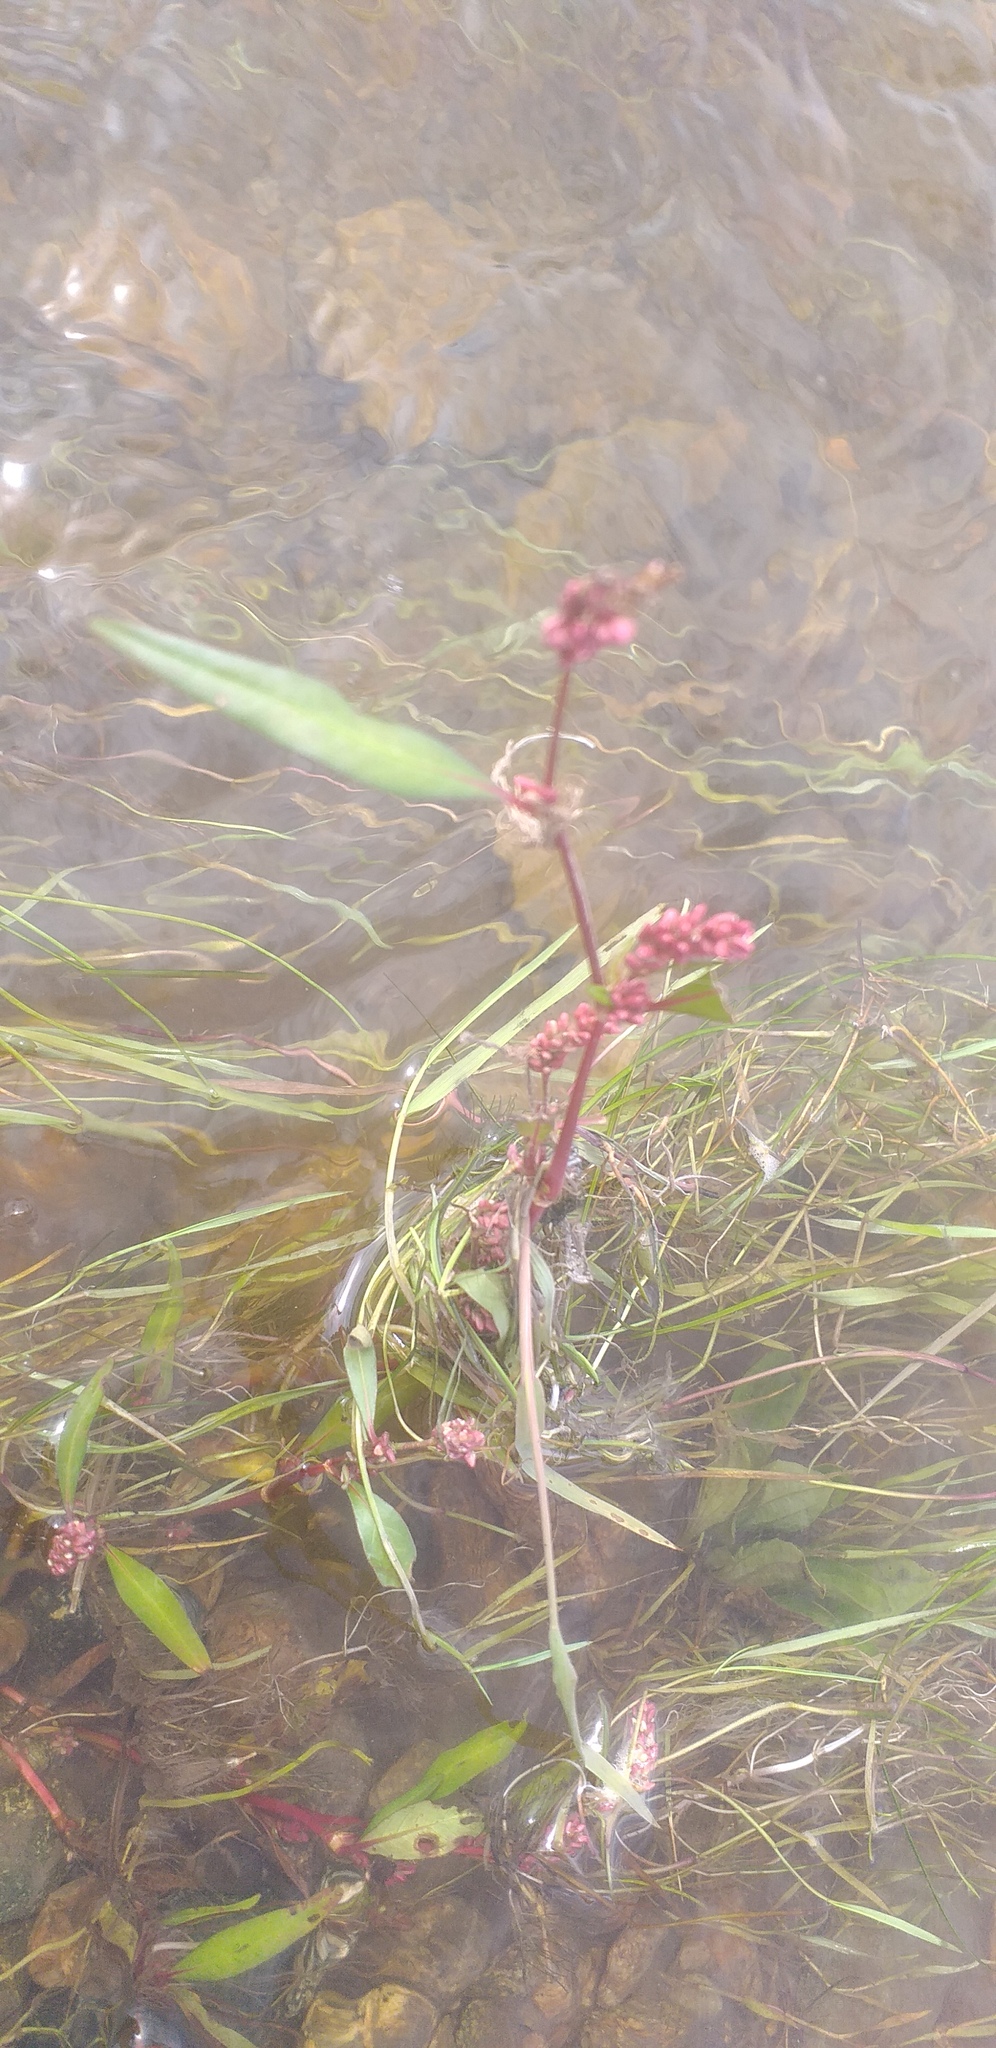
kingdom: Plantae
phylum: Tracheophyta
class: Magnoliopsida
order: Caryophyllales
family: Polygonaceae
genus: Persicaria
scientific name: Persicaria amphibia
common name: Amphibious bistort
